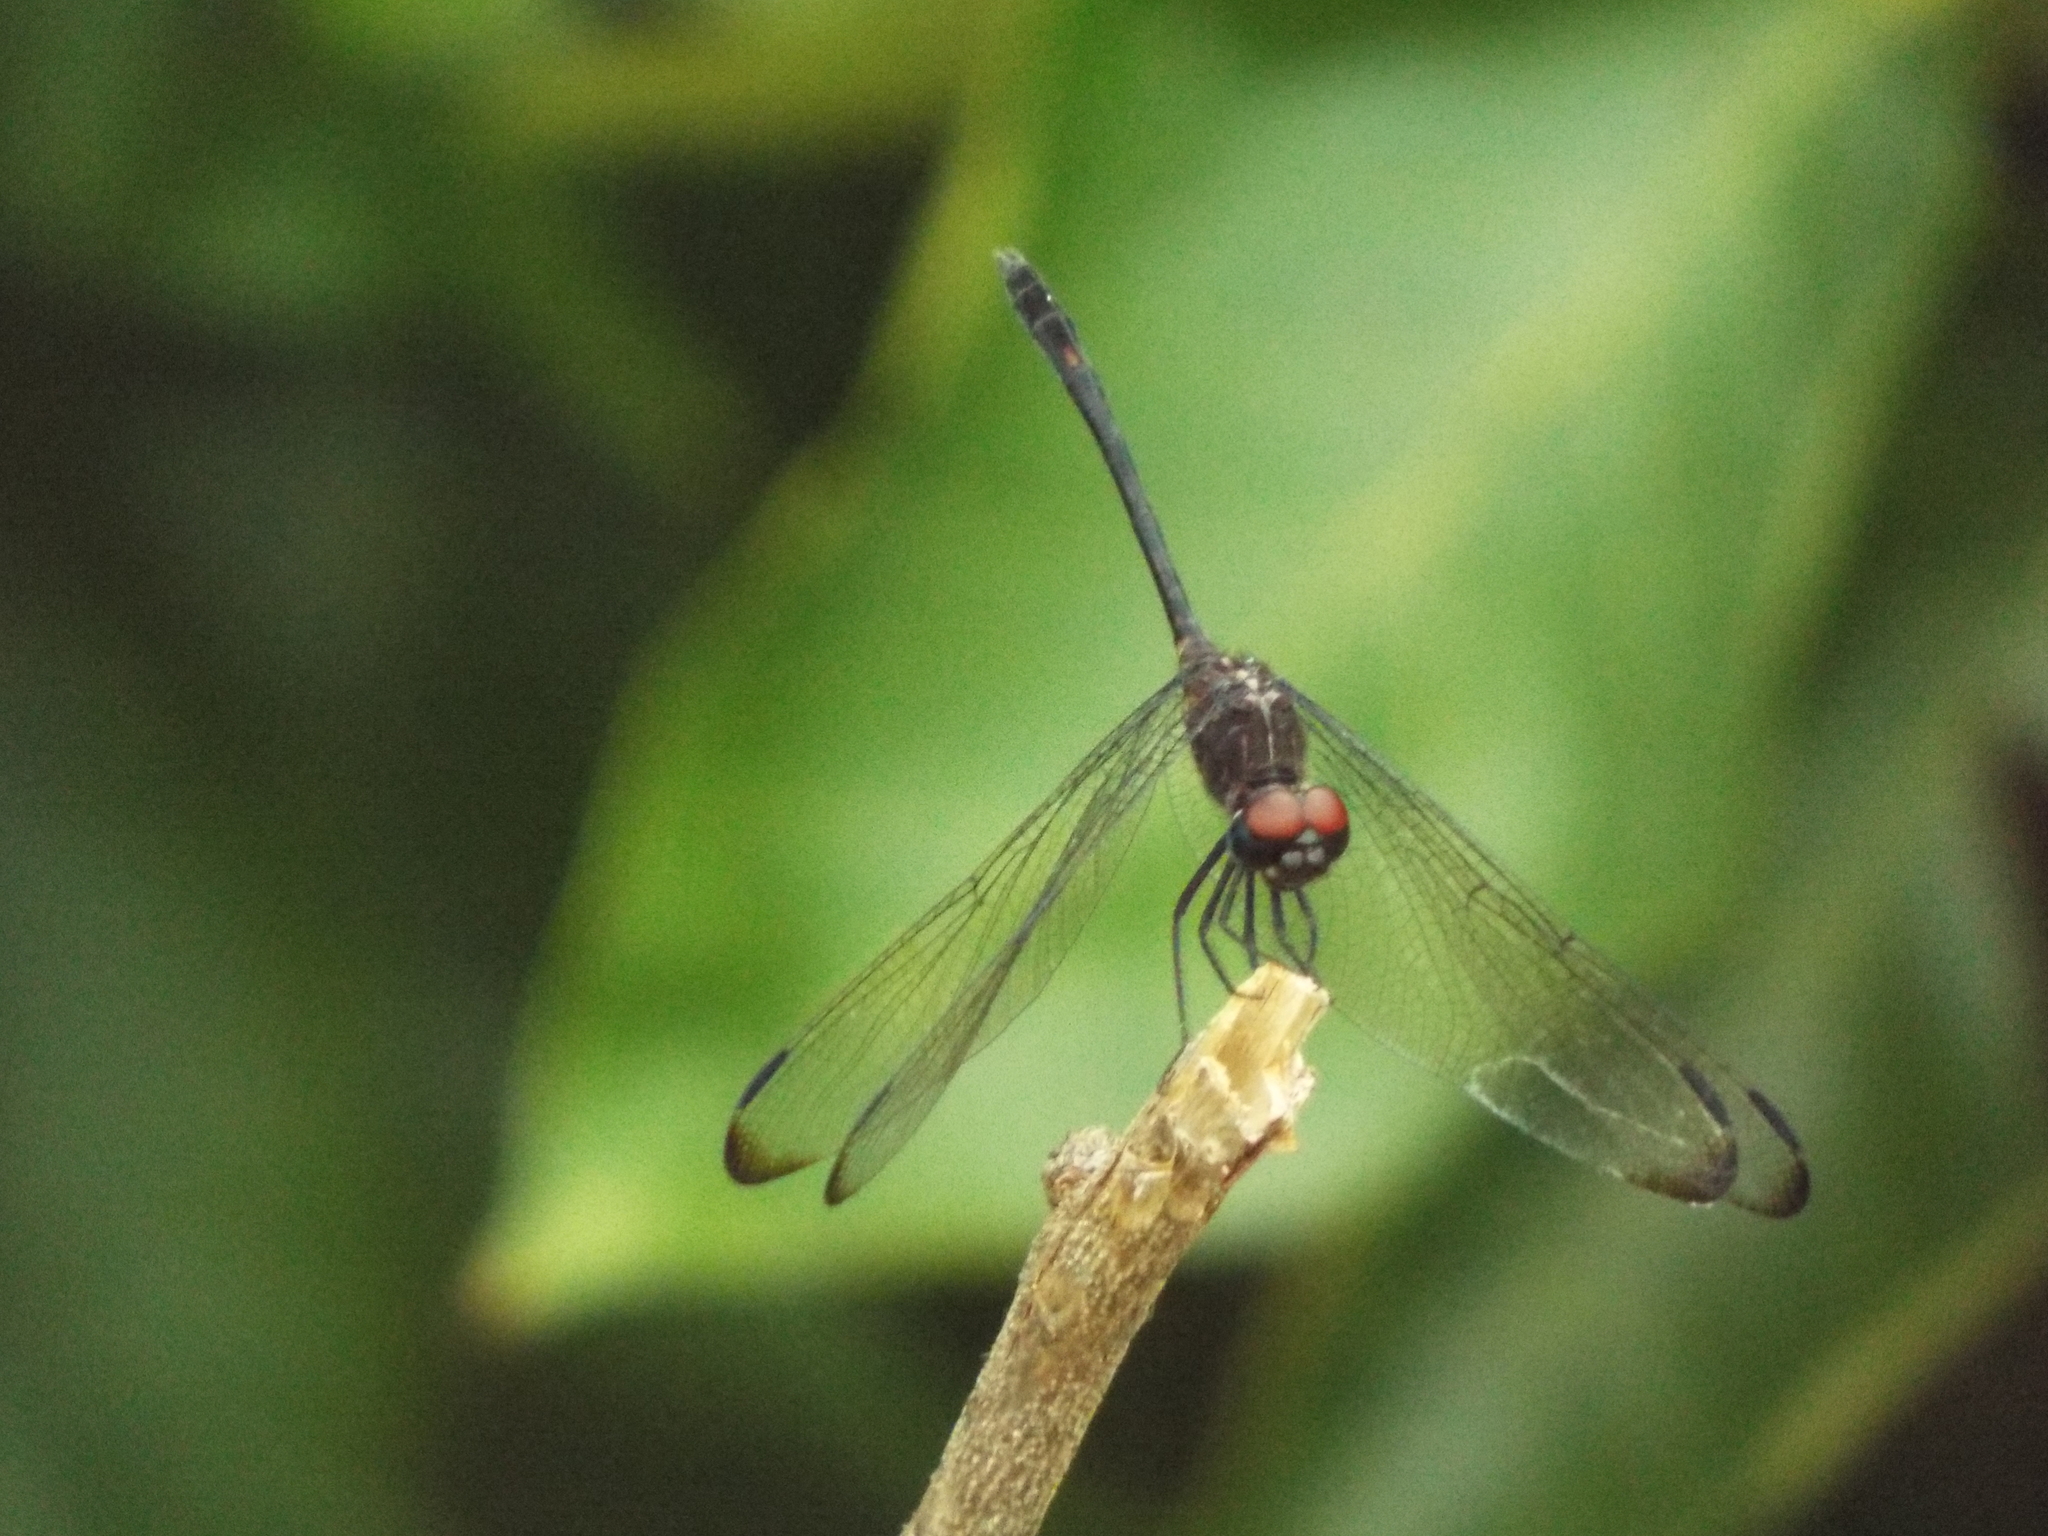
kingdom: Animalia
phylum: Arthropoda
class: Insecta
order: Odonata
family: Libellulidae
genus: Dythemis
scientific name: Dythemis velox
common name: Swift setwing
